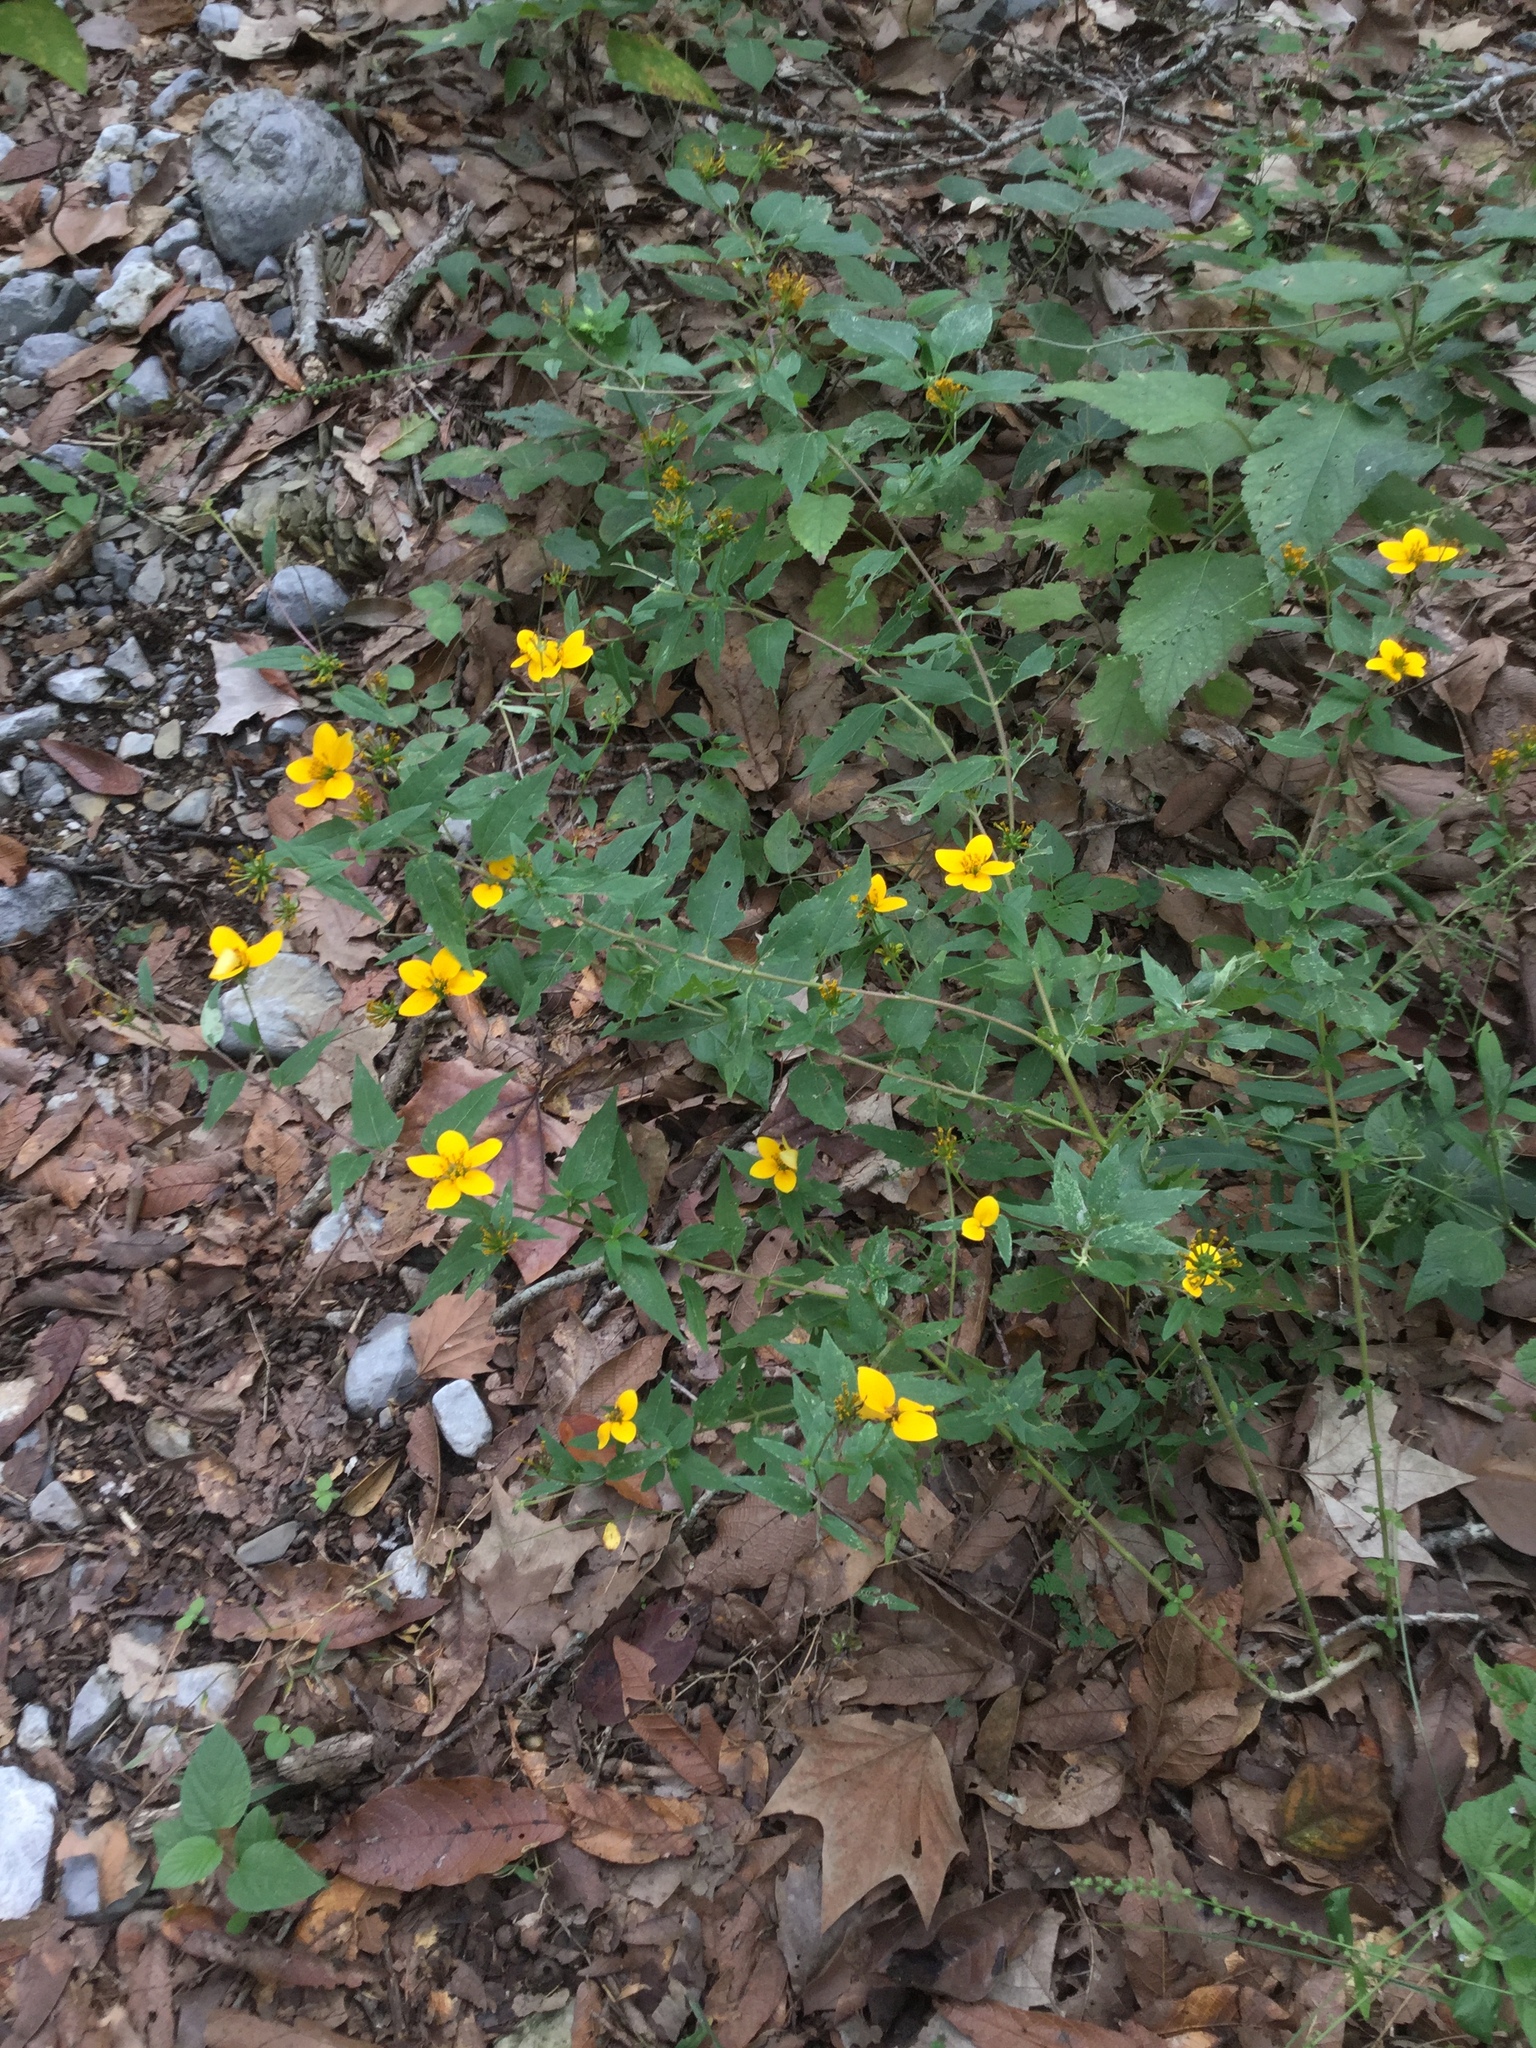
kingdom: Plantae
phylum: Tracheophyta
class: Magnoliopsida
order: Asterales
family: Asteraceae
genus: Sclerocarpus
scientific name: Sclerocarpus uniserialis
